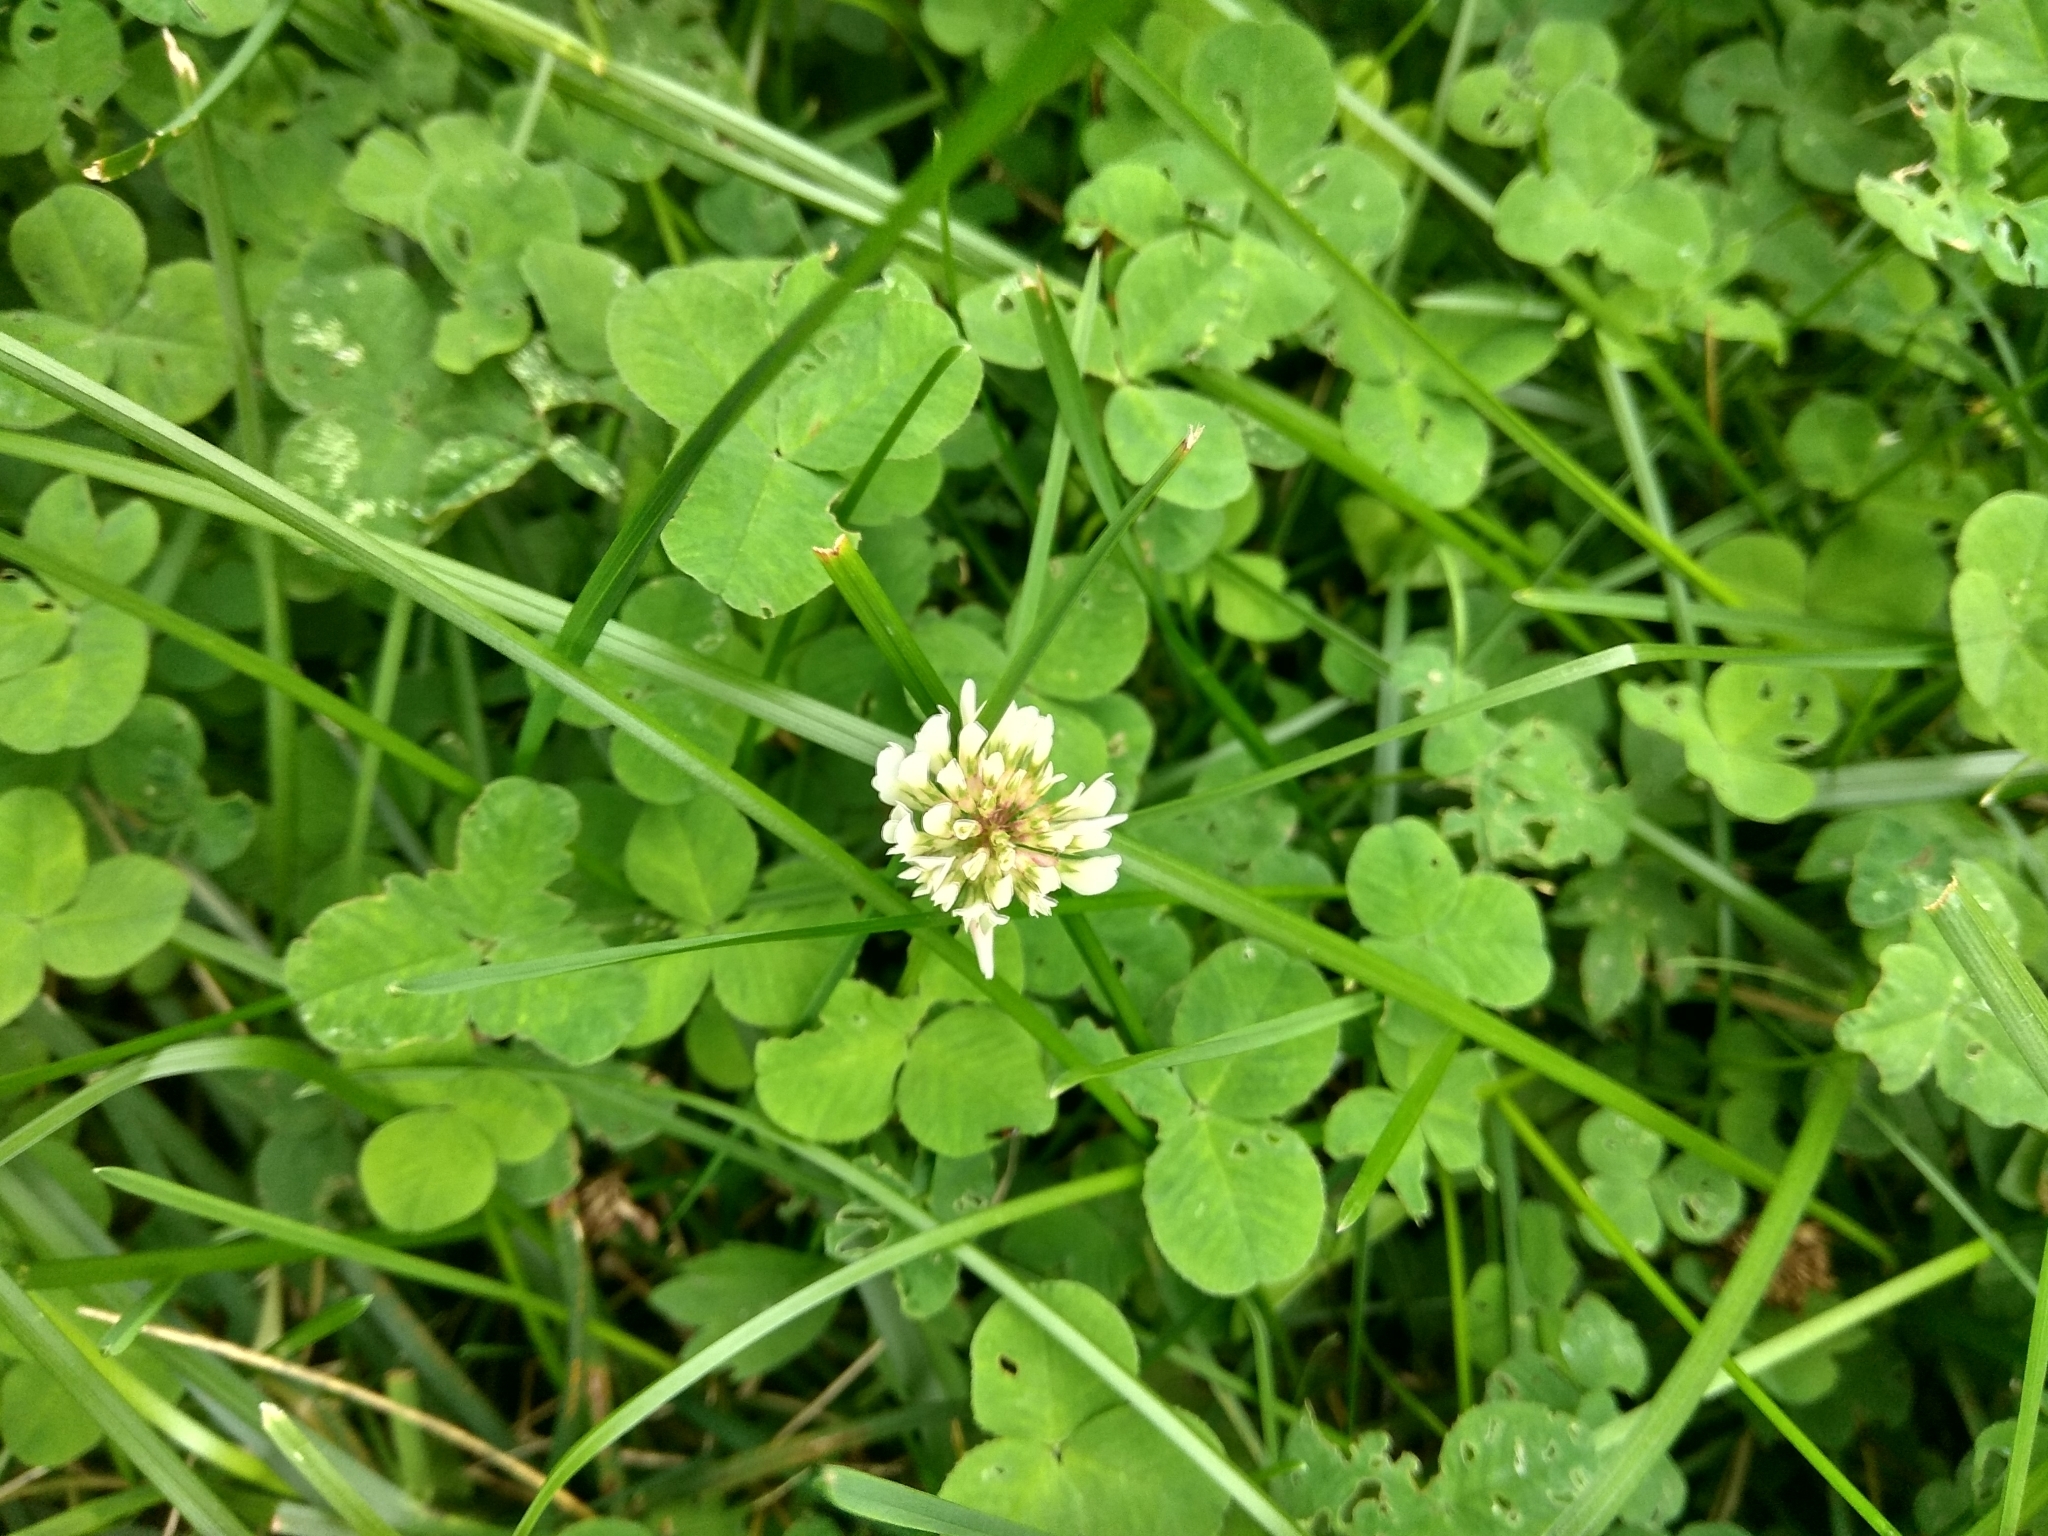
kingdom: Plantae
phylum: Tracheophyta
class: Magnoliopsida
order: Fabales
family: Fabaceae
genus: Trifolium
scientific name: Trifolium repens
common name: White clover
